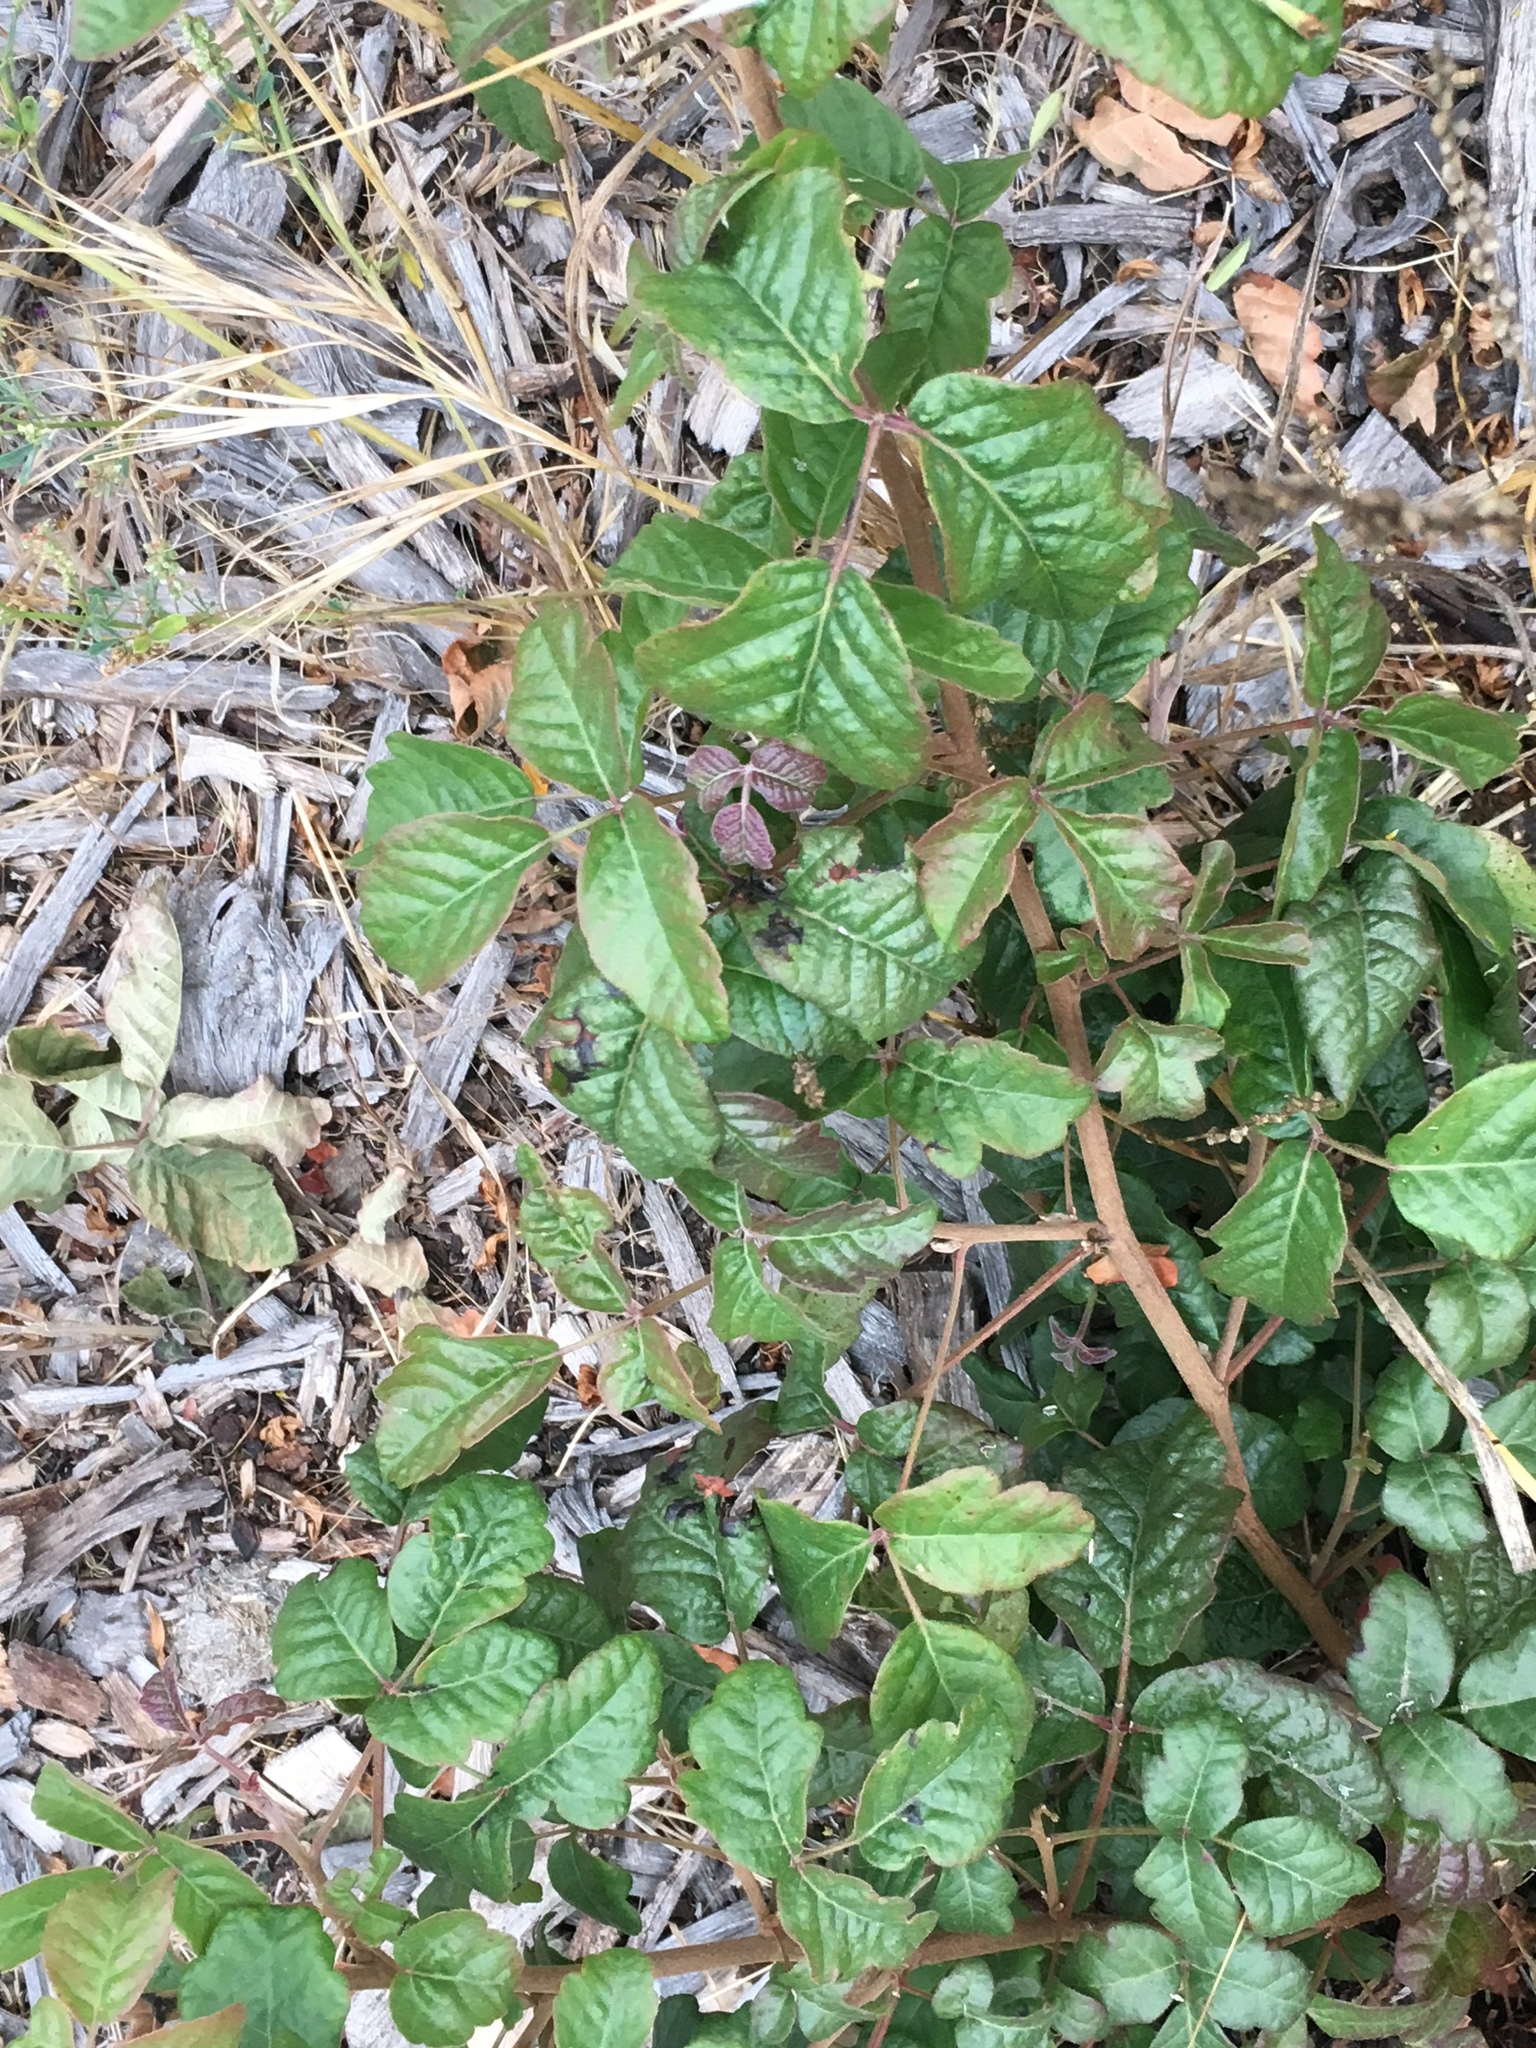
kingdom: Plantae
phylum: Tracheophyta
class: Magnoliopsida
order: Sapindales
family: Anacardiaceae
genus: Toxicodendron
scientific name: Toxicodendron diversilobum
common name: Pacific poison-oak
